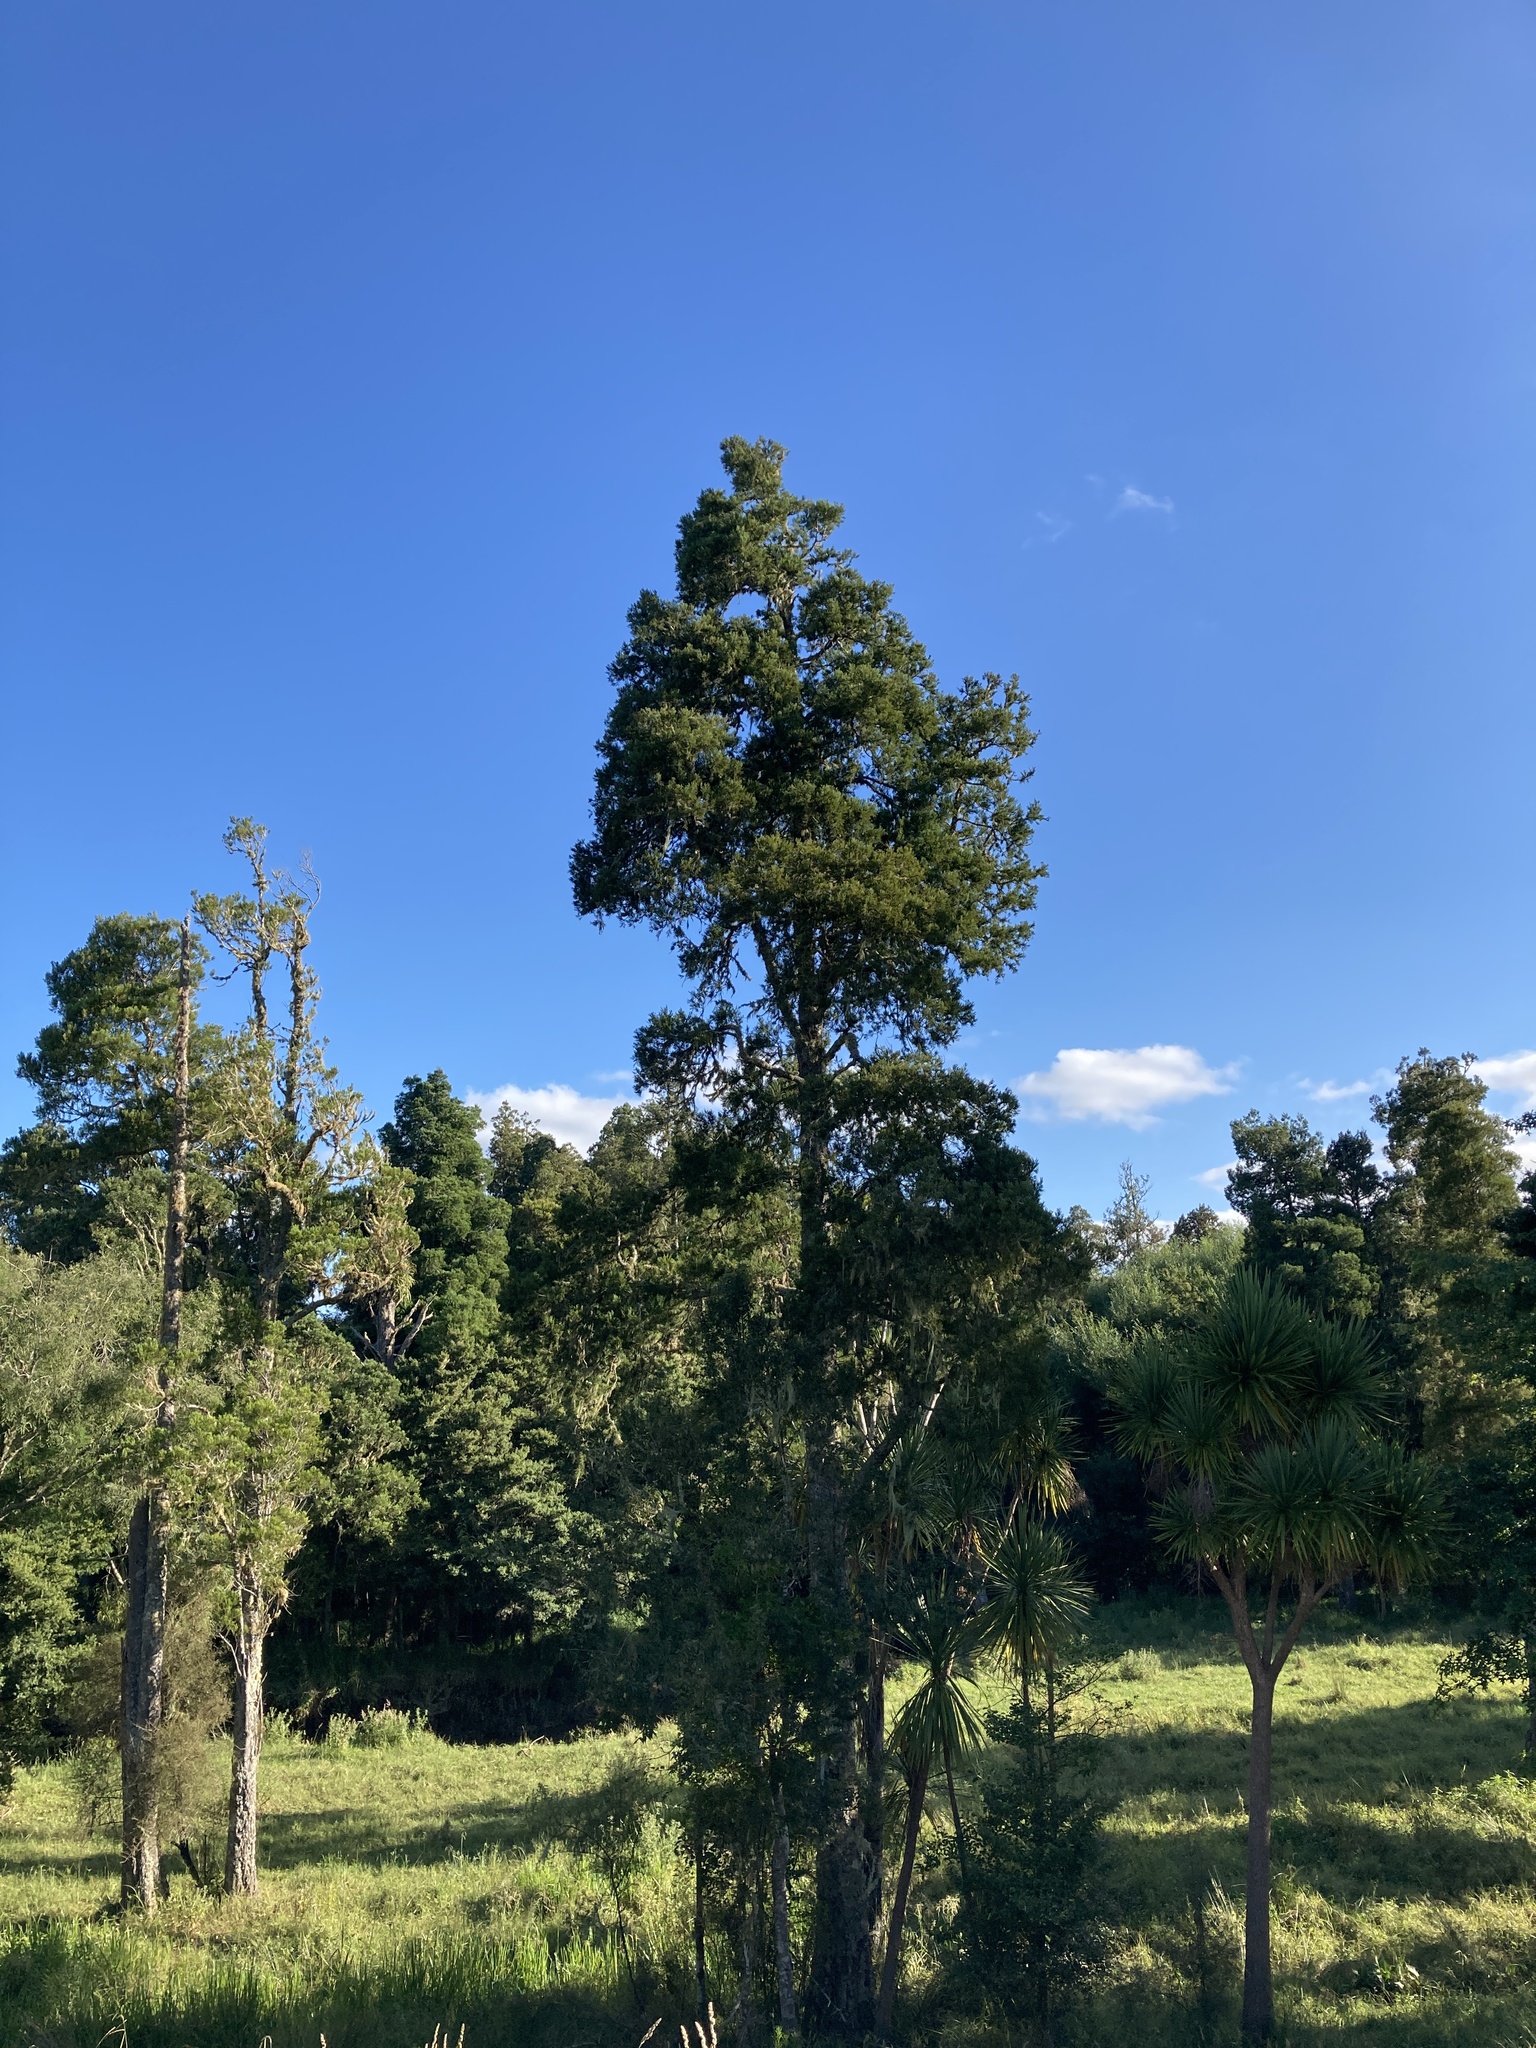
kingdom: Plantae
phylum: Tracheophyta
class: Pinopsida
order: Pinales
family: Podocarpaceae
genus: Dacrycarpus
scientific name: Dacrycarpus dacrydioides
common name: White pine
